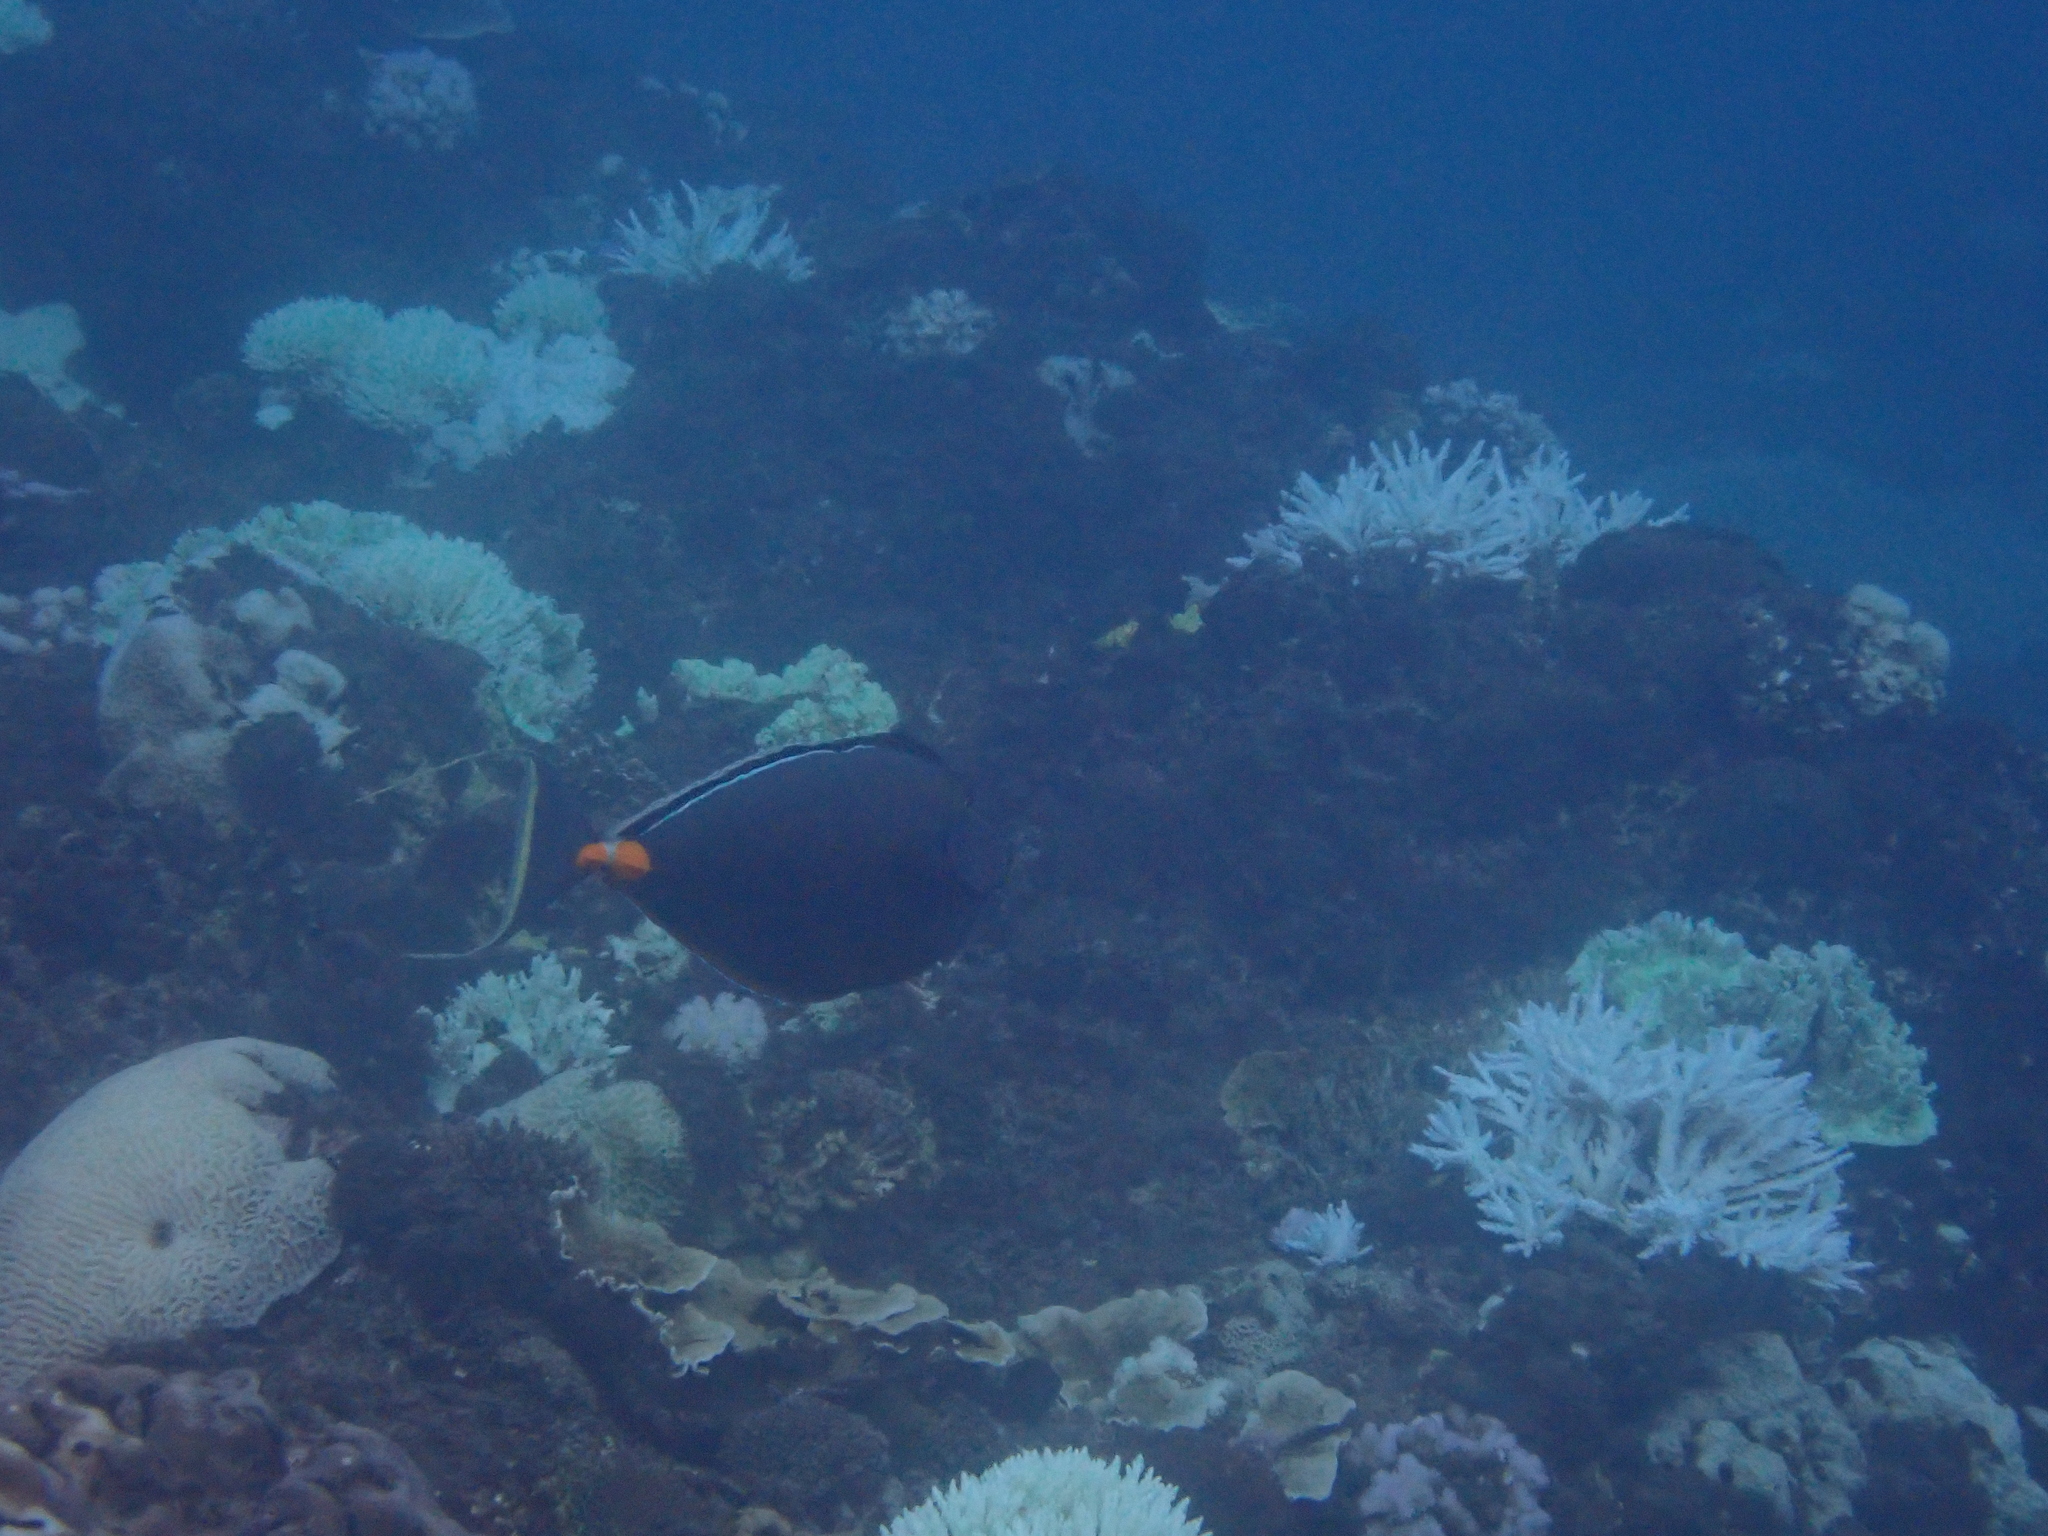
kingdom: Animalia
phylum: Chordata
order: Perciformes
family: Acanthuridae
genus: Naso
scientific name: Naso lituratus
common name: Orangespine unicornfish
